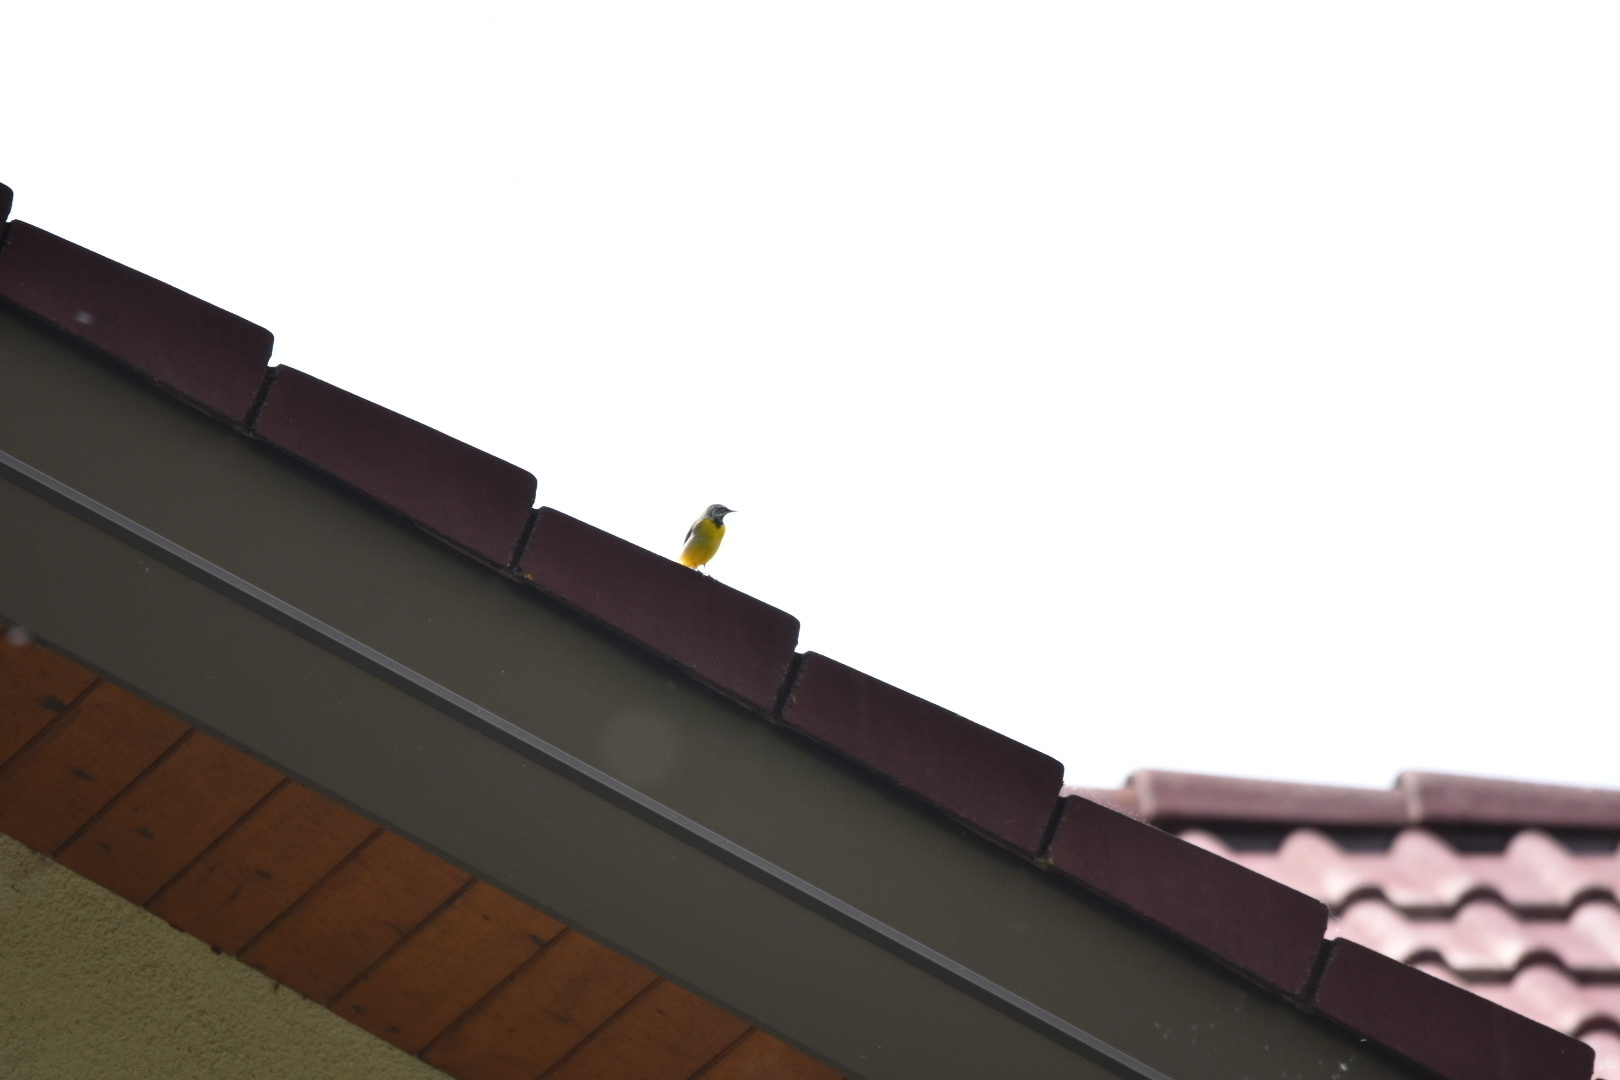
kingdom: Animalia
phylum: Chordata
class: Aves
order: Passeriformes
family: Motacillidae
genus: Motacilla
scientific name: Motacilla cinerea
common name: Grey wagtail
